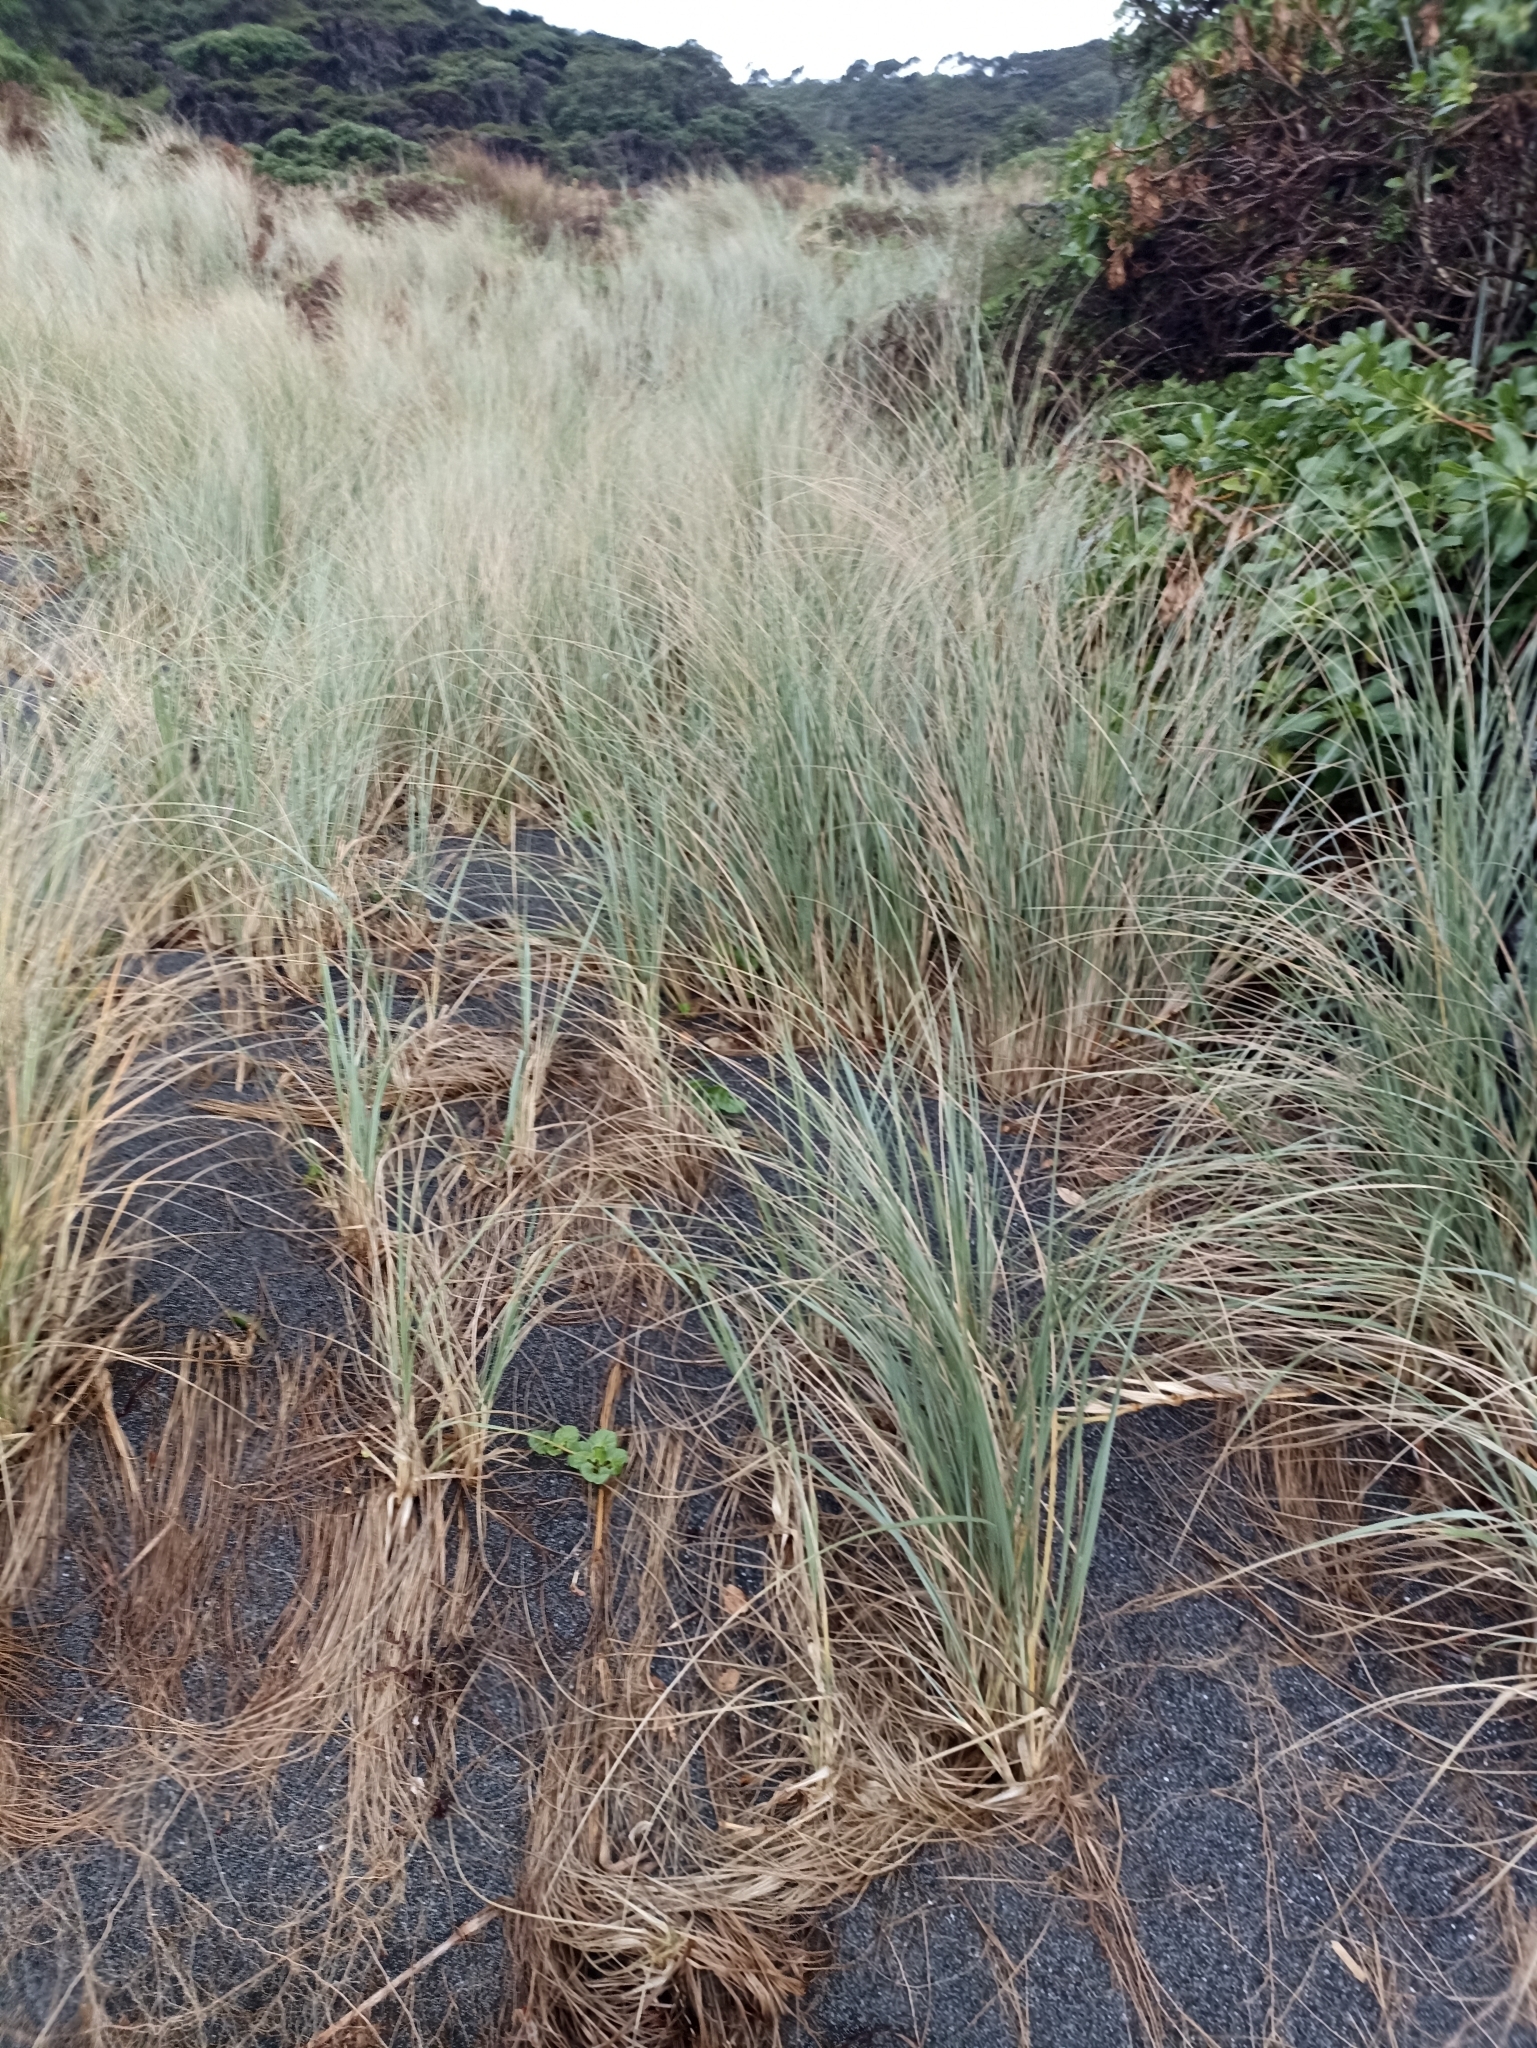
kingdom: Plantae
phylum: Tracheophyta
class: Liliopsida
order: Poales
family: Poaceae
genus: Spinifex
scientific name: Spinifex sericeus
